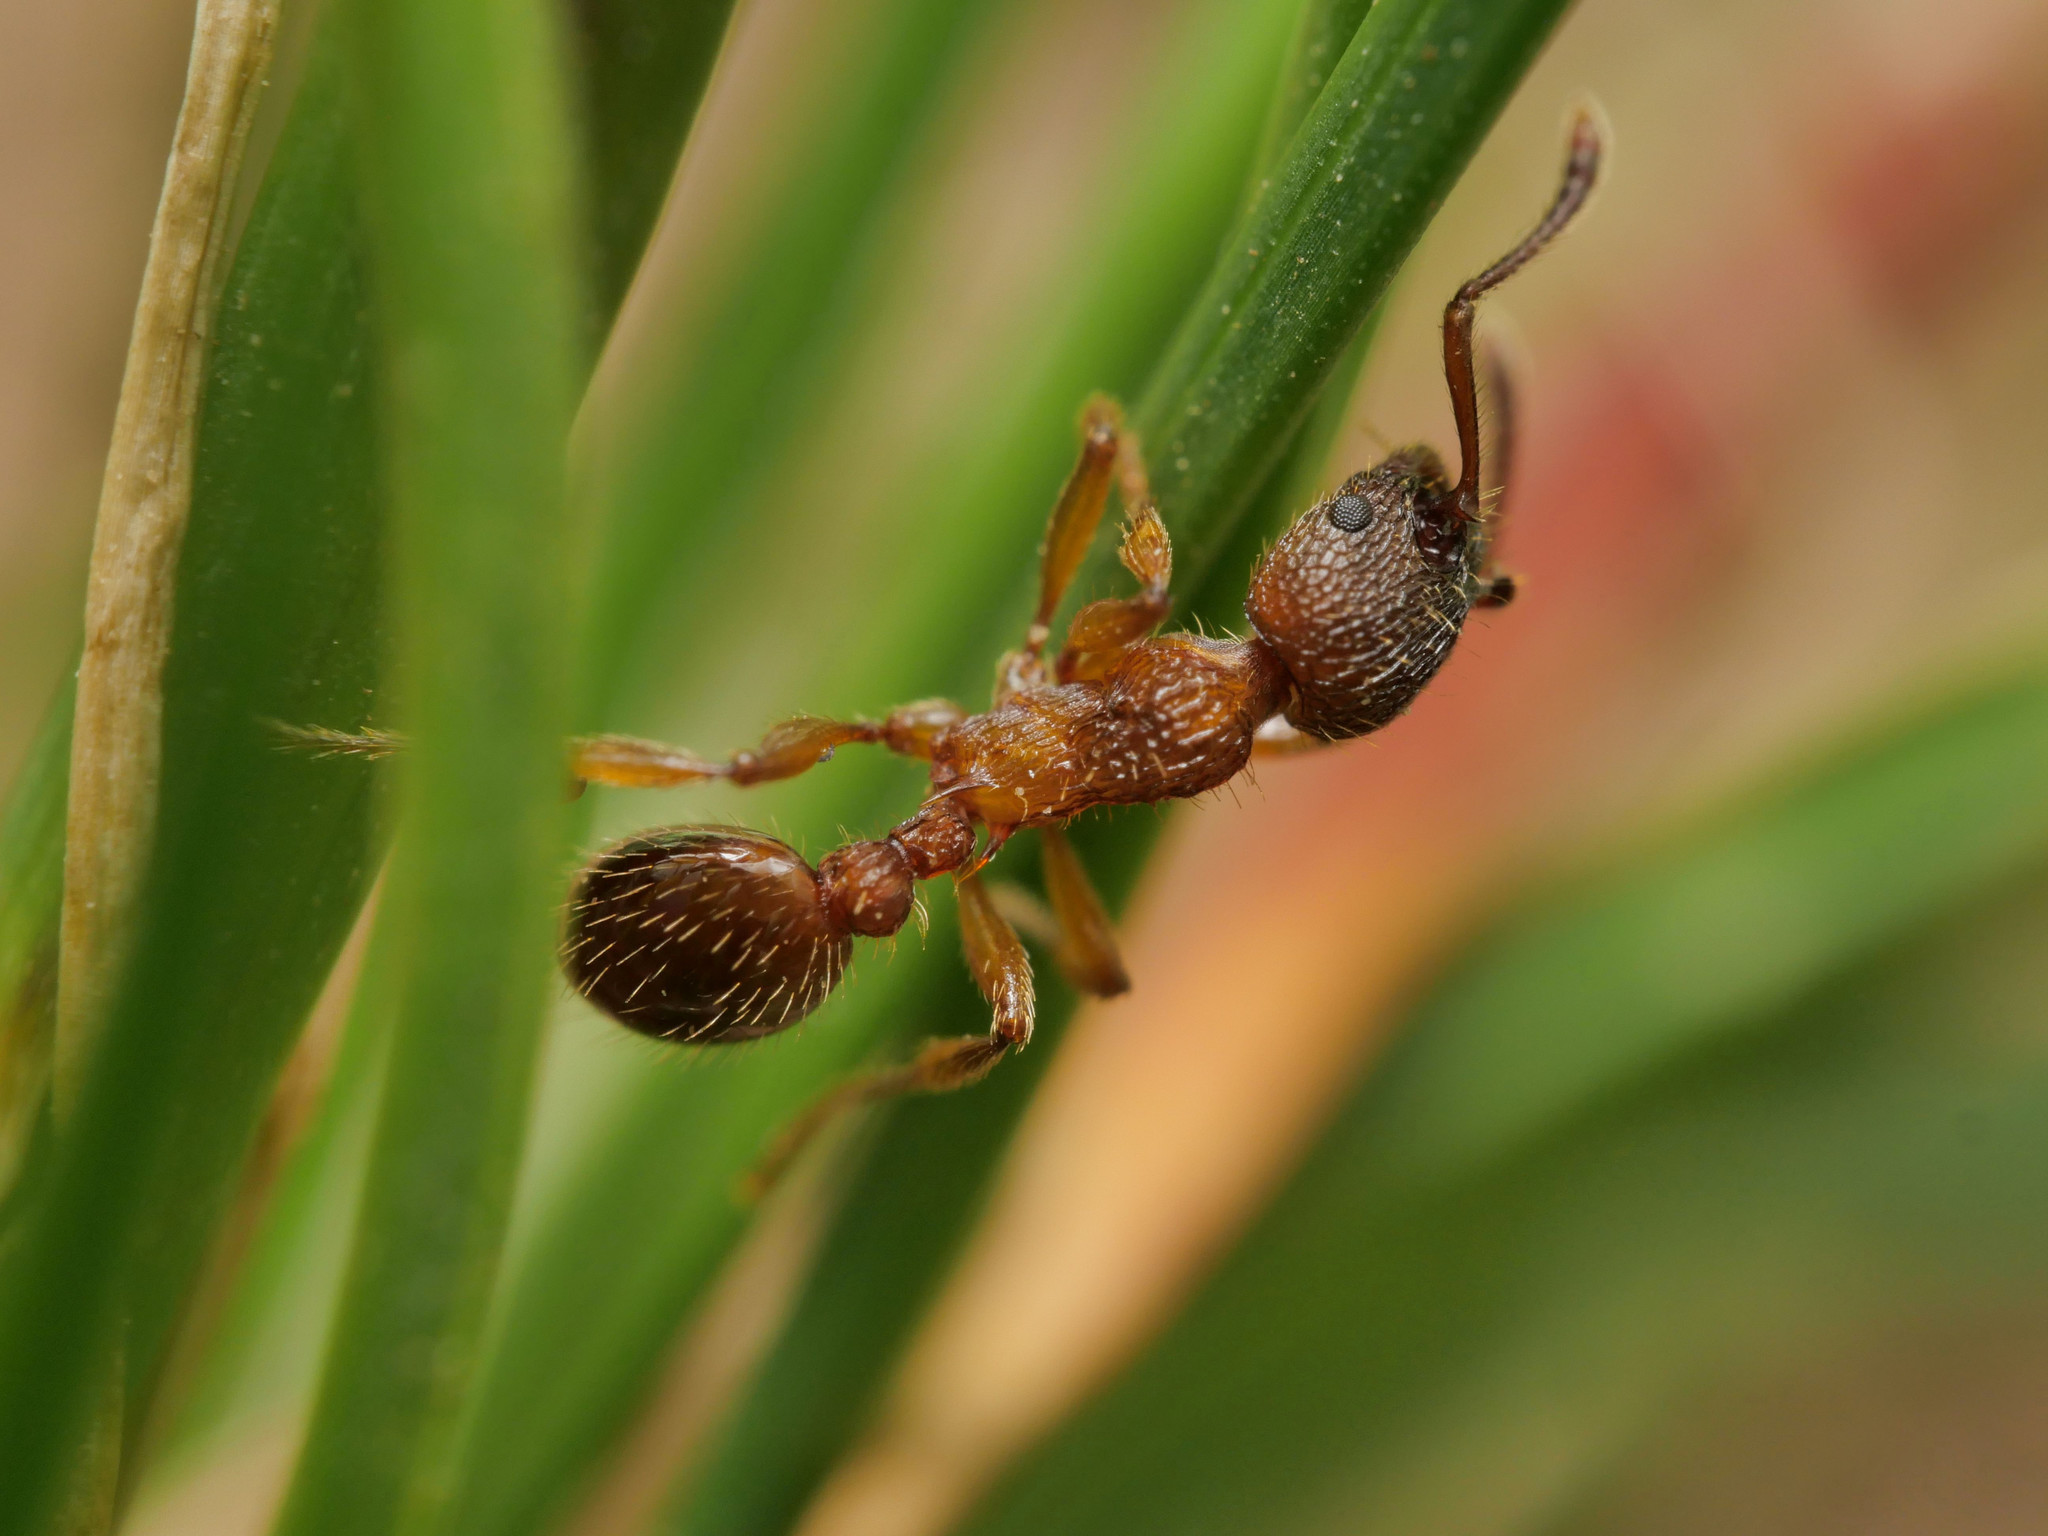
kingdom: Animalia
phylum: Arthropoda
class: Insecta
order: Hymenoptera
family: Formicidae
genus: Myrmica
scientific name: Myrmica schencki
